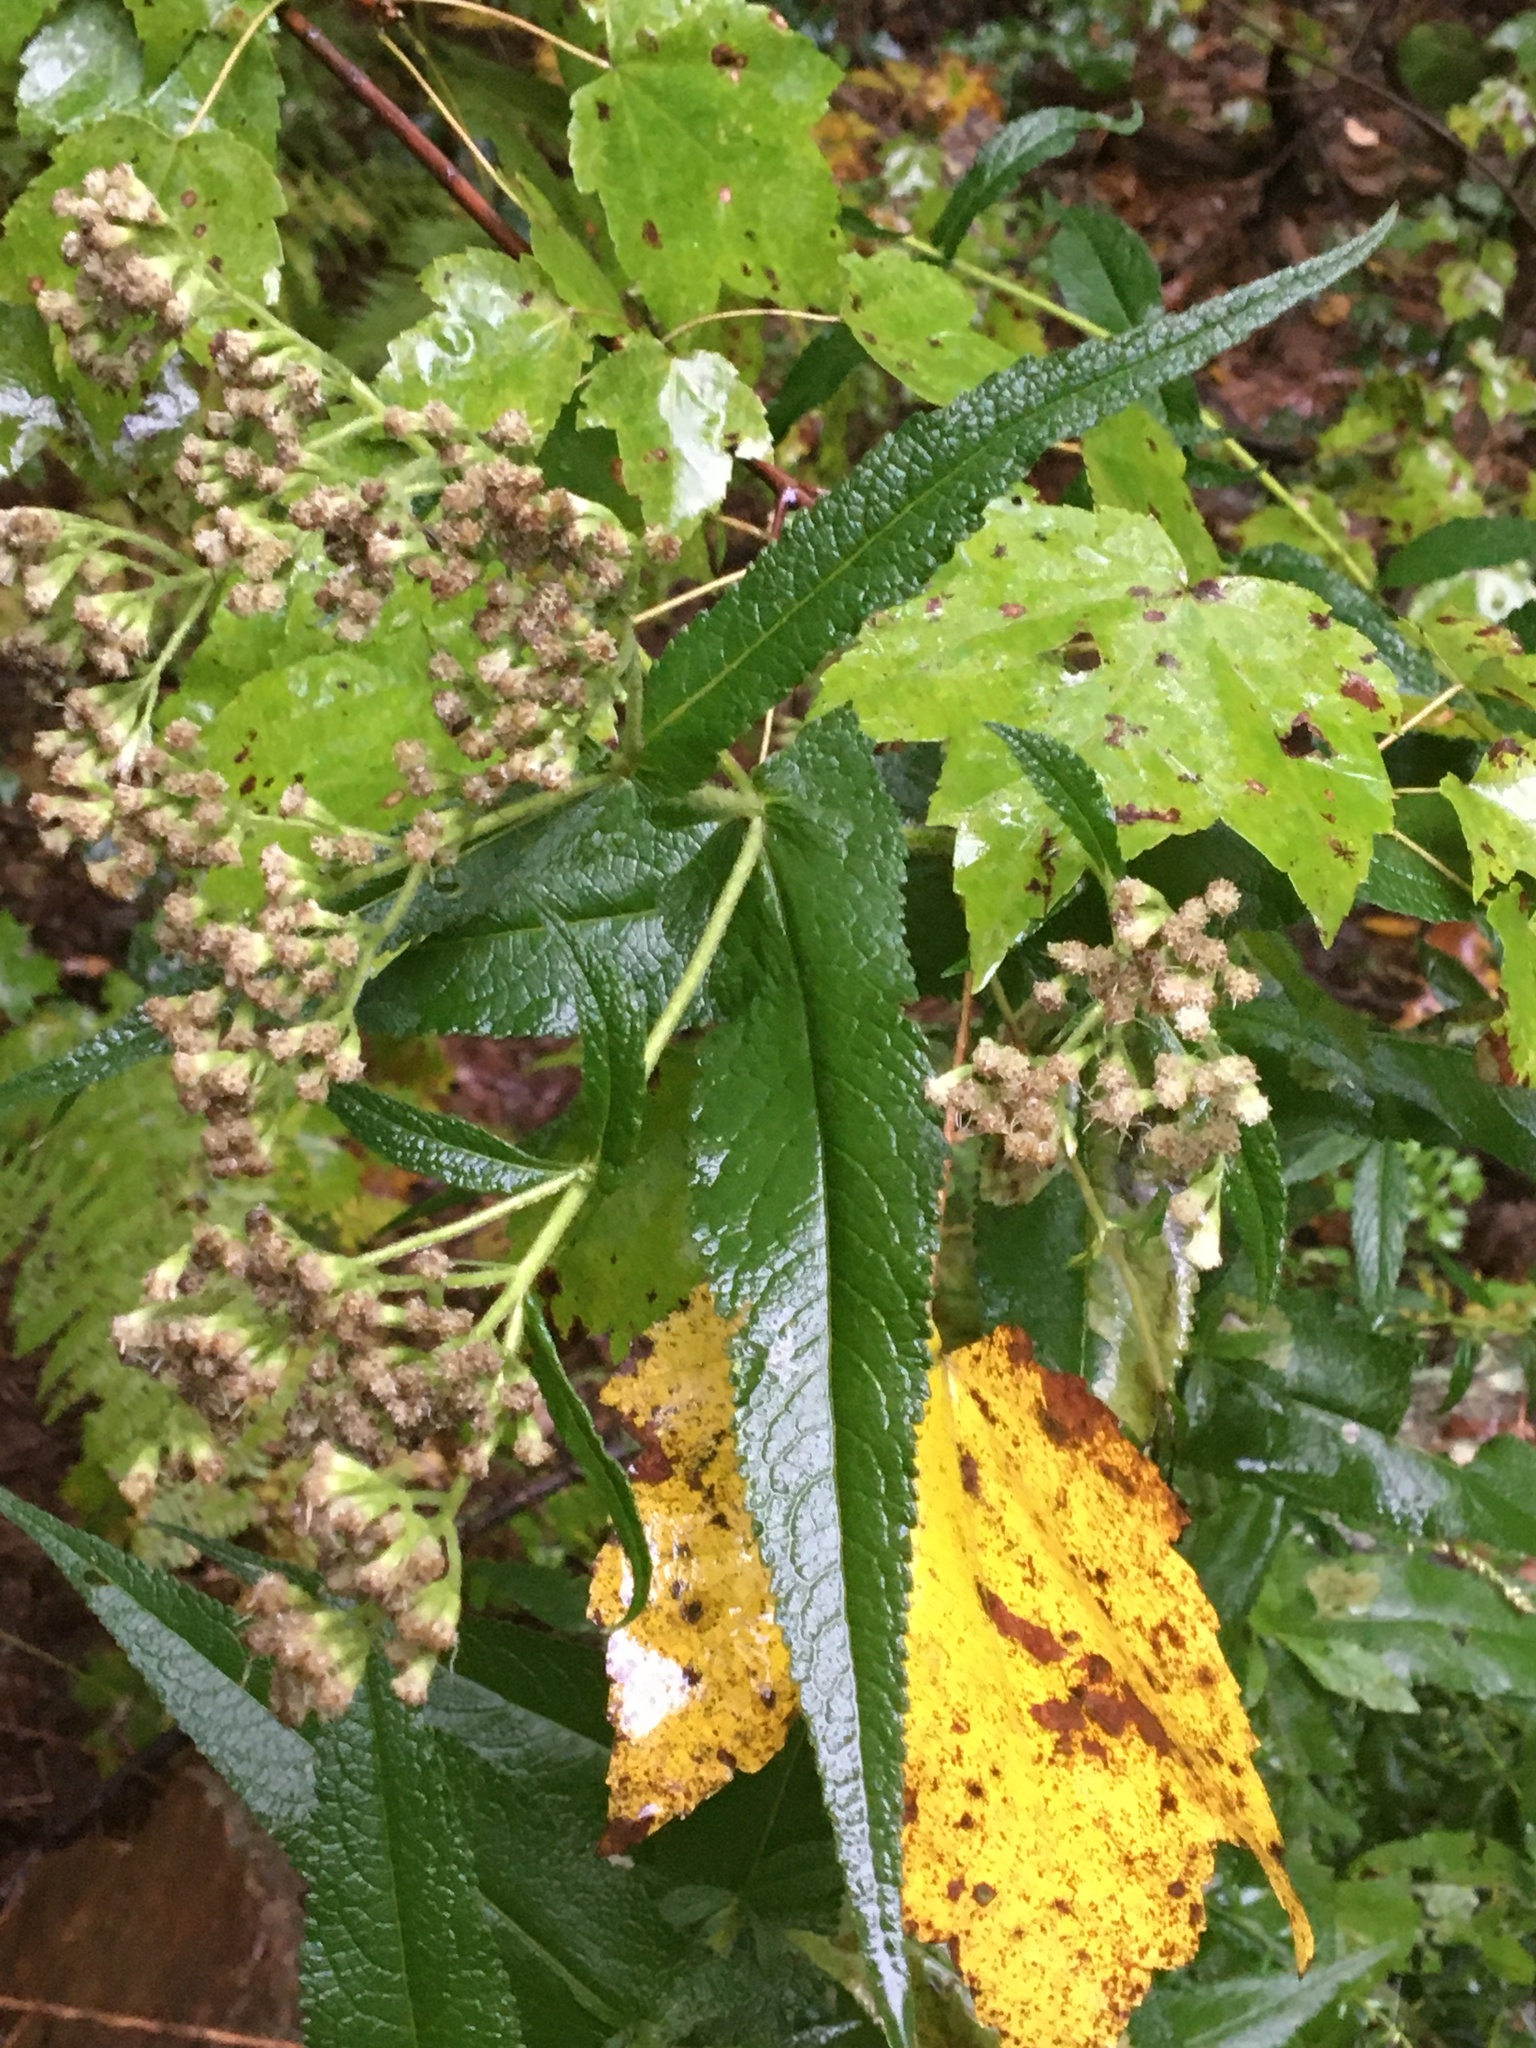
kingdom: Plantae
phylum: Tracheophyta
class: Magnoliopsida
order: Asterales
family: Asteraceae
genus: Eupatorium
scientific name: Eupatorium perfoliatum
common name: Boneset
